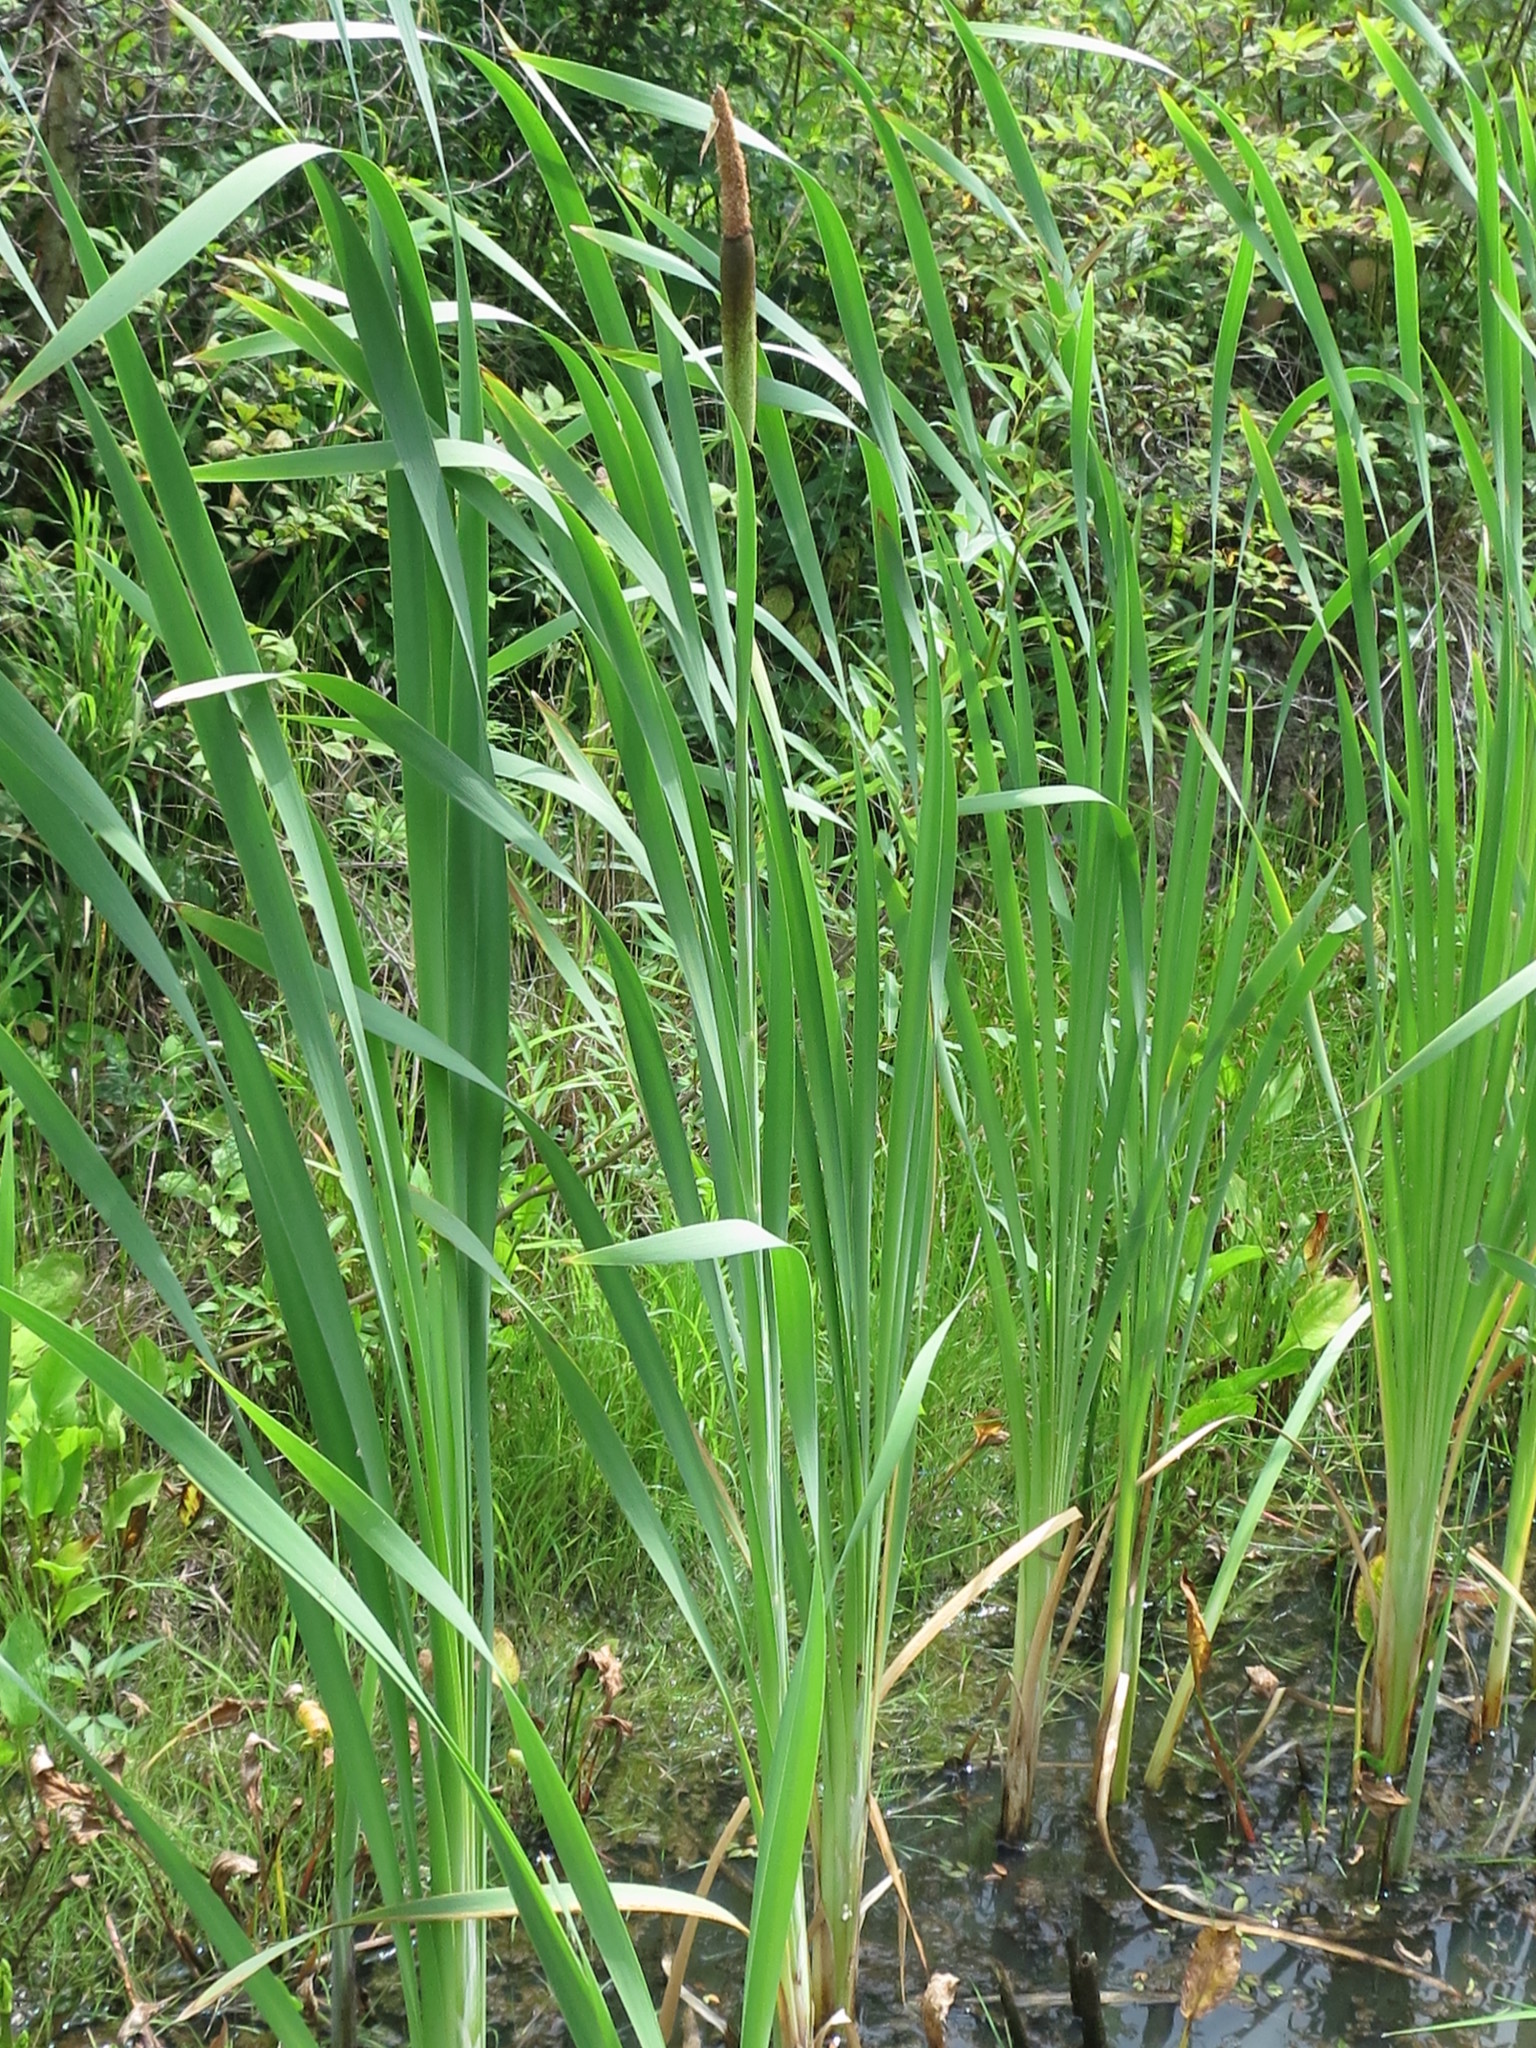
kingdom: Plantae
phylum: Tracheophyta
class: Liliopsida
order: Poales
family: Typhaceae
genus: Typha
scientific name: Typha latifolia
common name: Broadleaf cattail
